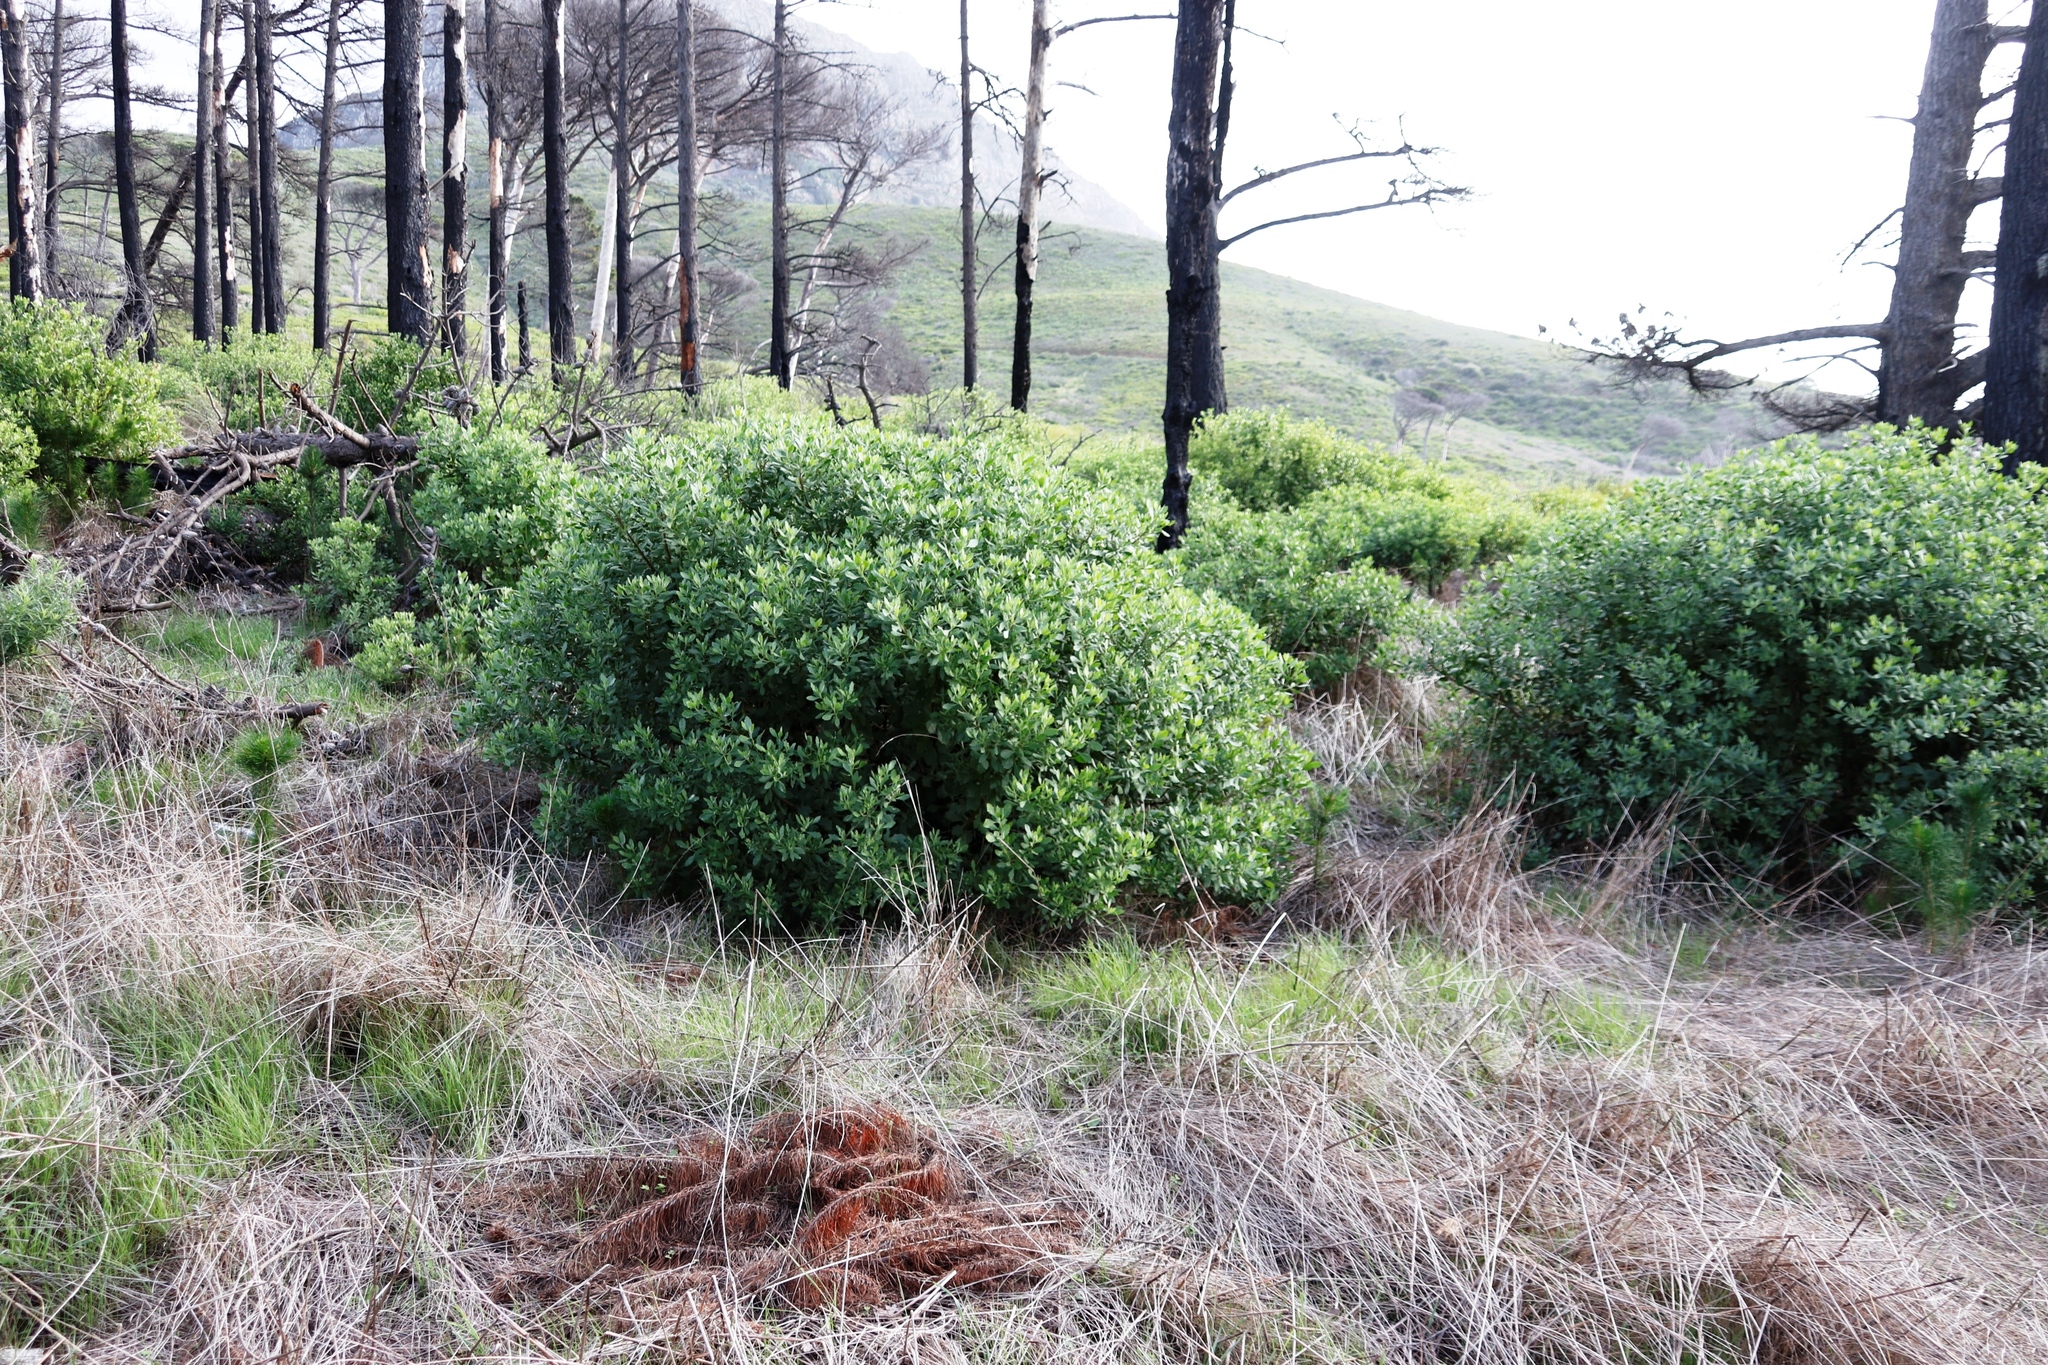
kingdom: Plantae
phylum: Tracheophyta
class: Magnoliopsida
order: Asterales
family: Asteraceae
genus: Osteospermum
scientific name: Osteospermum moniliferum
